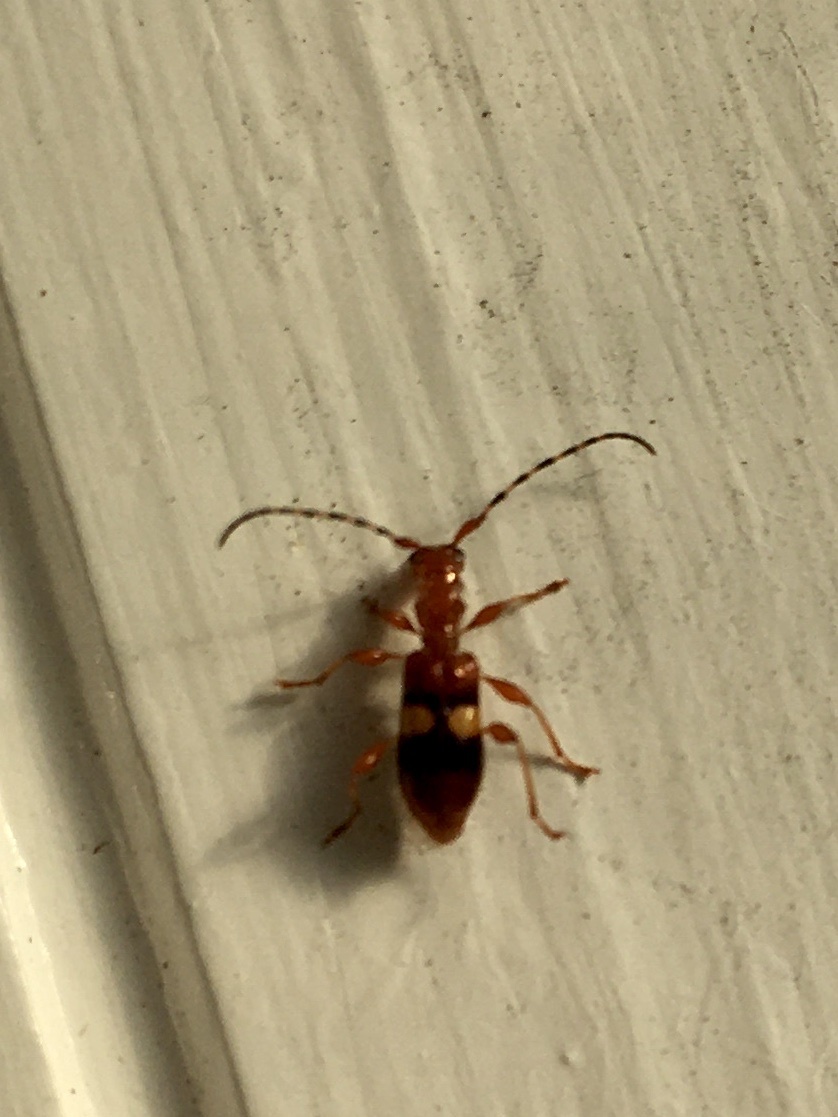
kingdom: Animalia
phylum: Arthropoda
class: Insecta
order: Coleoptera
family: Cerambycidae
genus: Zorion
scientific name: Zorion australe
